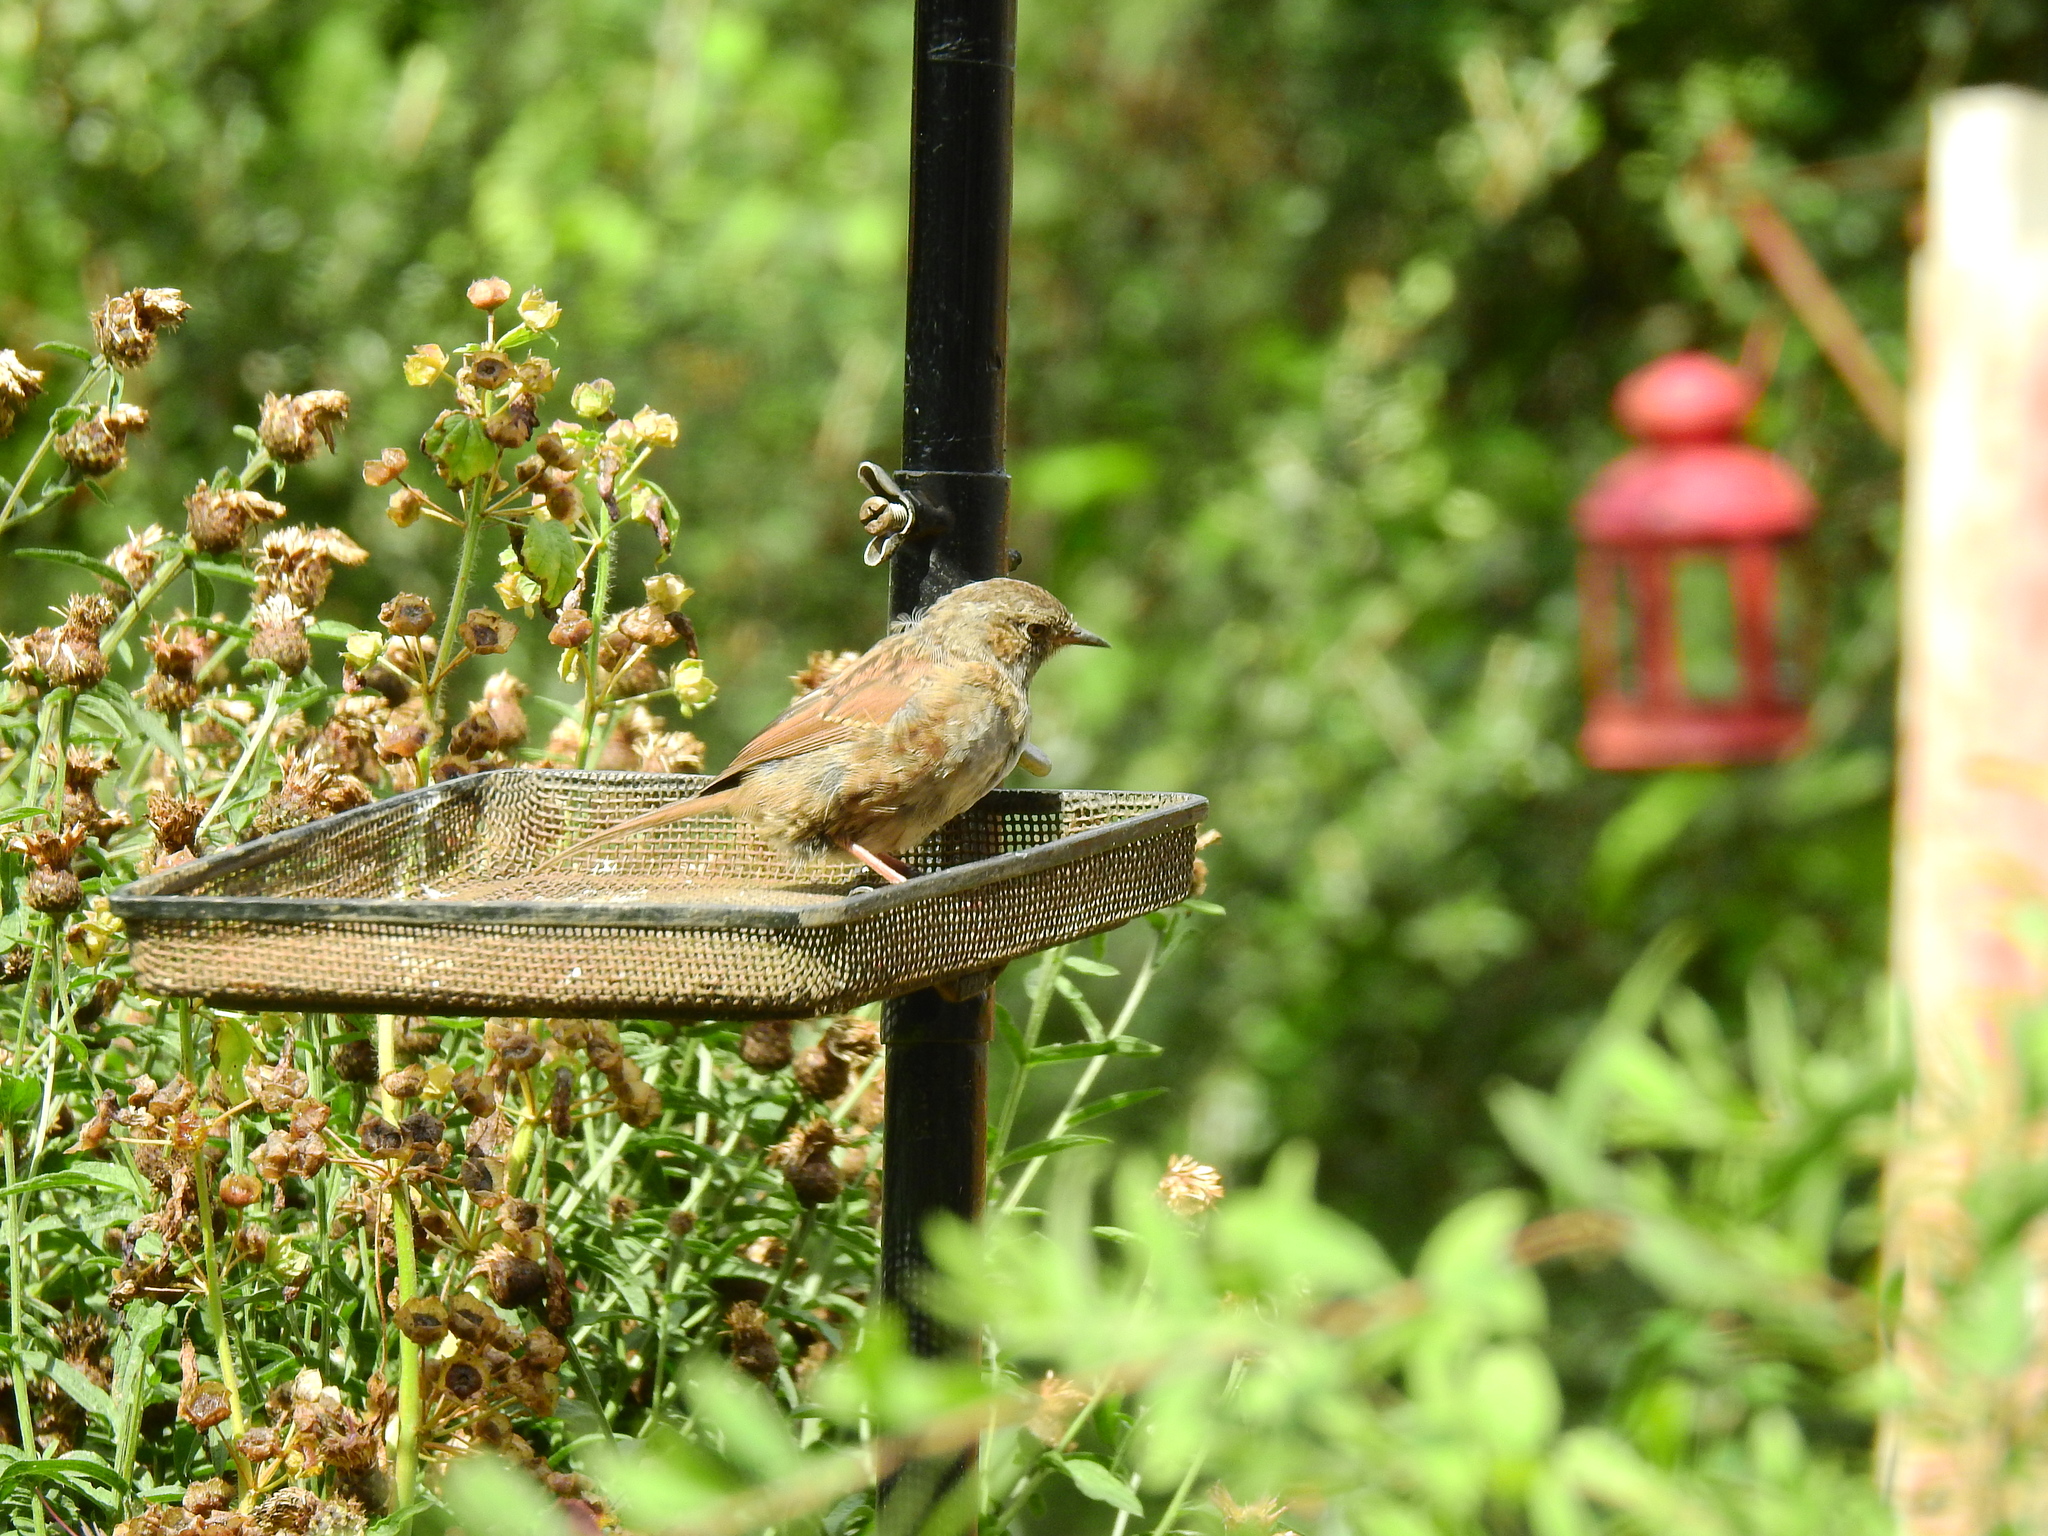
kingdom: Animalia
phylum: Chordata
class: Aves
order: Passeriformes
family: Prunellidae
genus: Prunella
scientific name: Prunella modularis
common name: Dunnock
